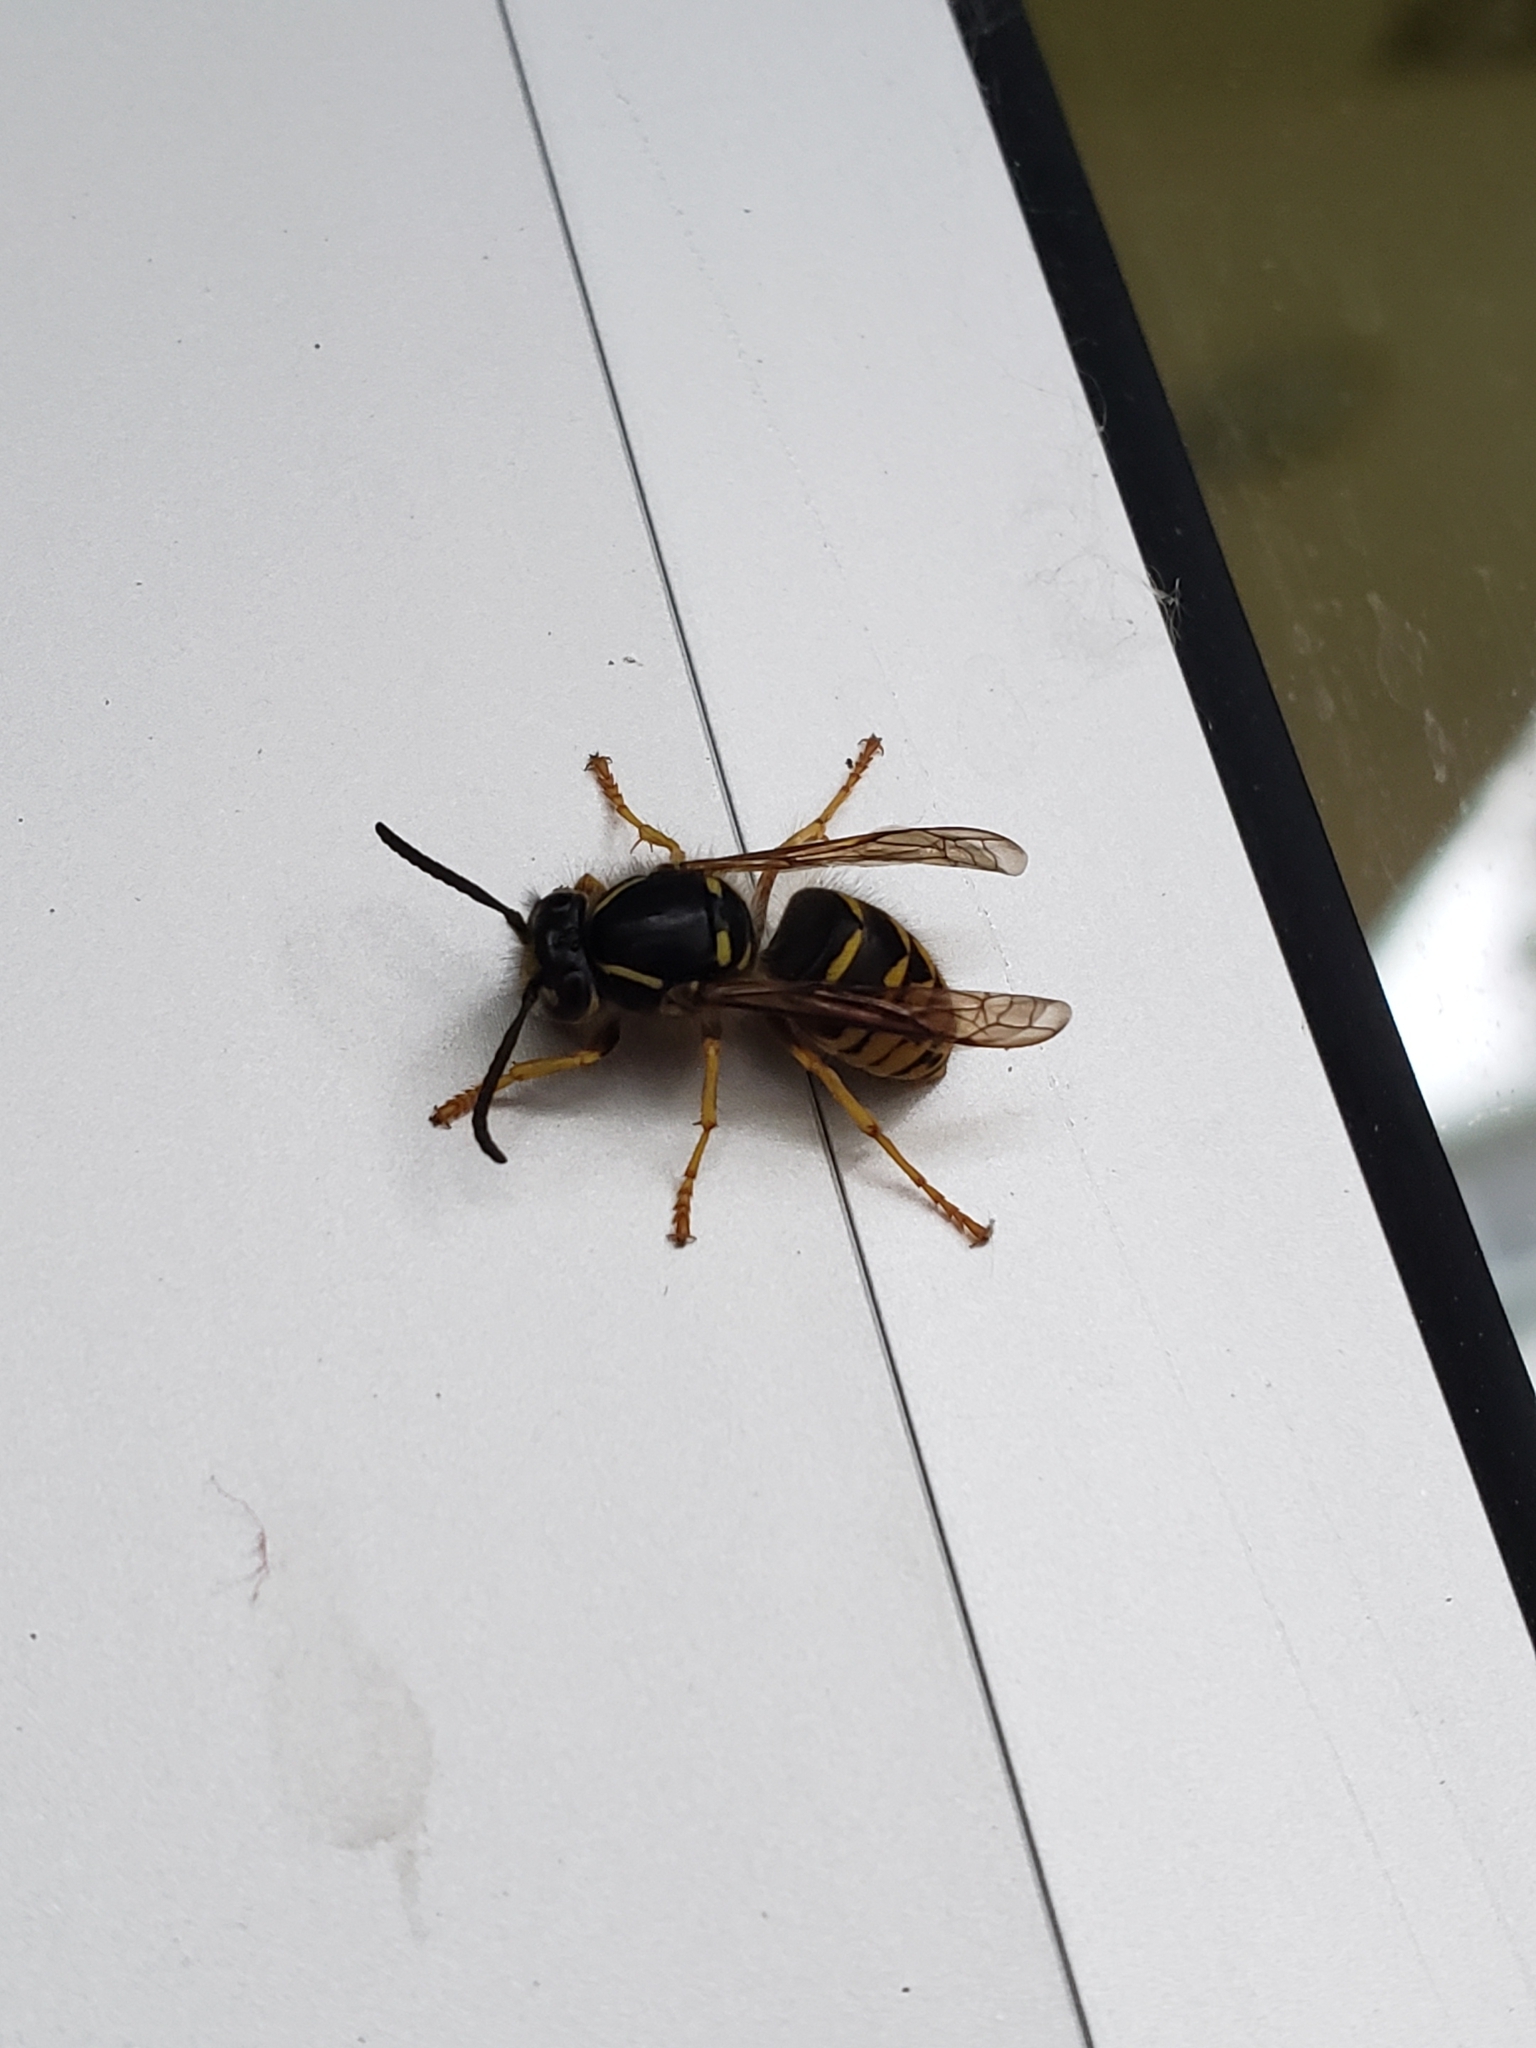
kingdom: Animalia
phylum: Arthropoda
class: Insecta
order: Hymenoptera
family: Vespidae
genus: Dolichovespula
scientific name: Dolichovespula arenaria
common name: Aerial yellowjacket
